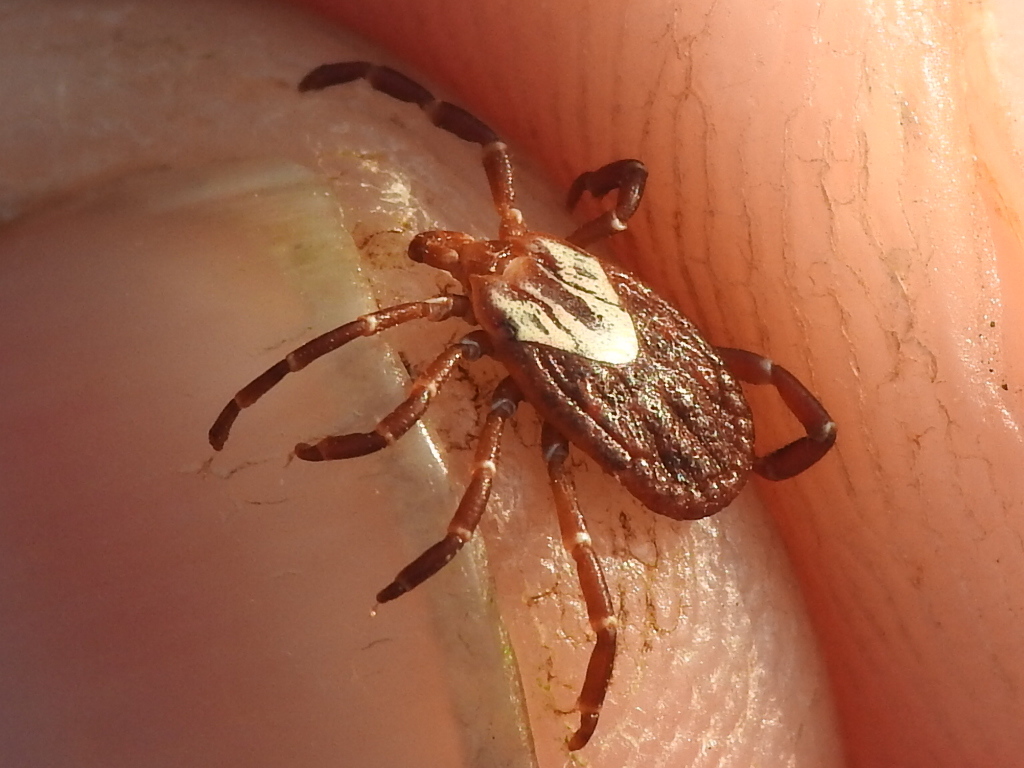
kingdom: Animalia
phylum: Arthropoda
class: Arachnida
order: Ixodida
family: Ixodidae
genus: Amblyomma
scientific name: Amblyomma maculatum
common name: Gulf coast tick
